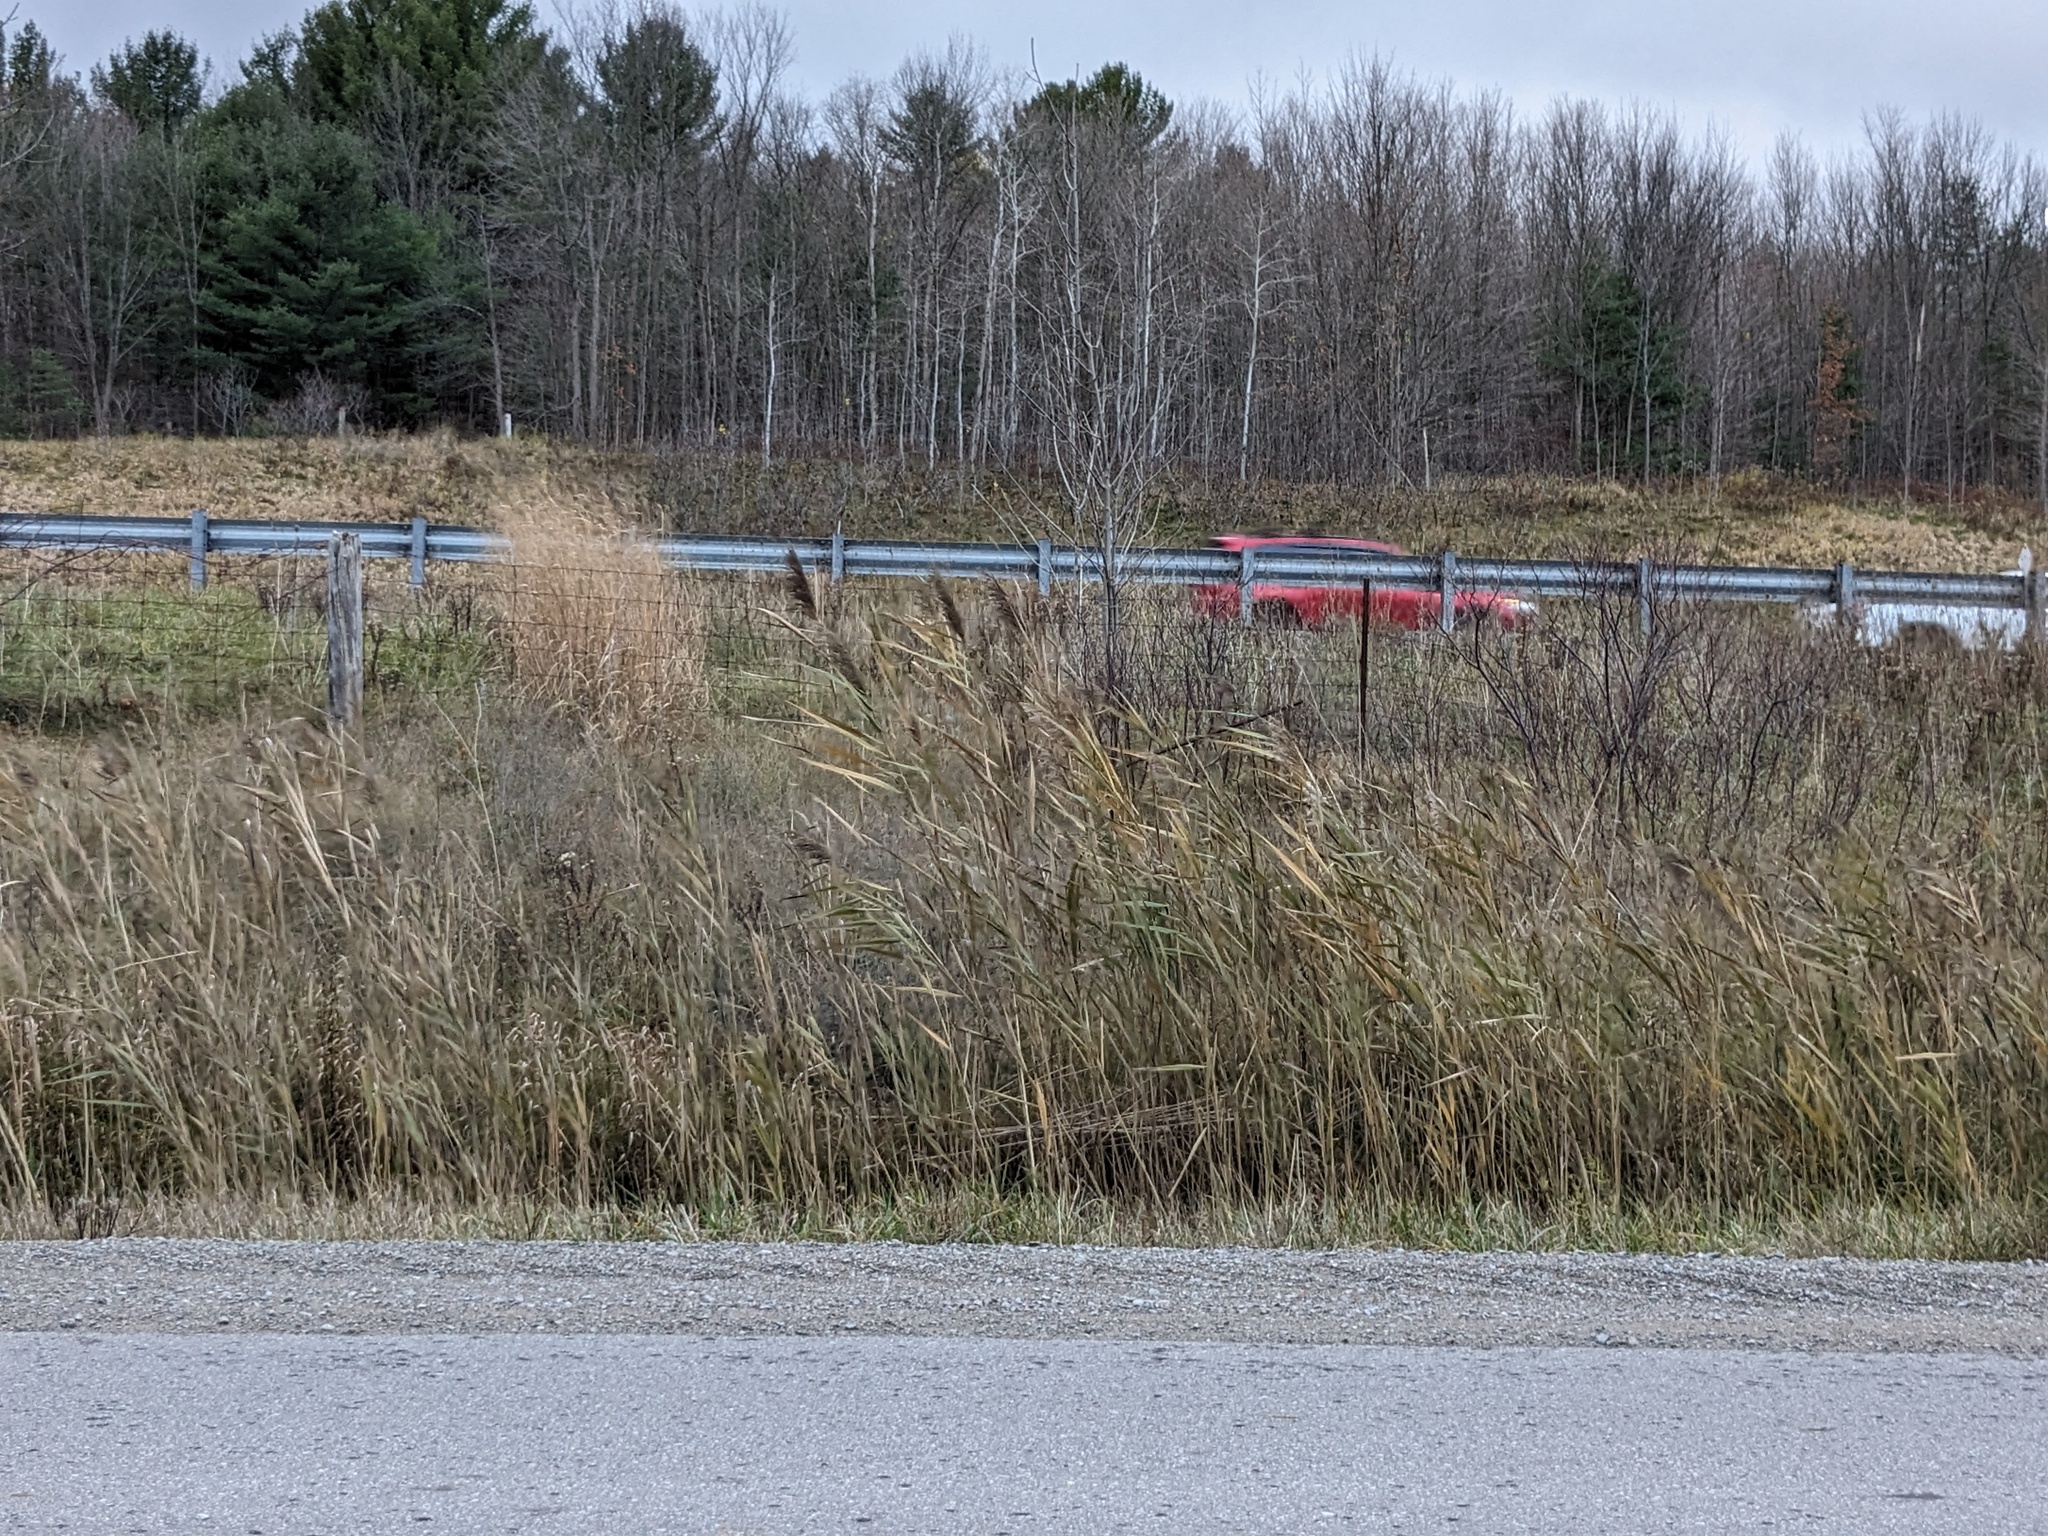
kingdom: Plantae
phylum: Tracheophyta
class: Liliopsida
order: Poales
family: Poaceae
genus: Phragmites
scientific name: Phragmites australis
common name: Common reed
